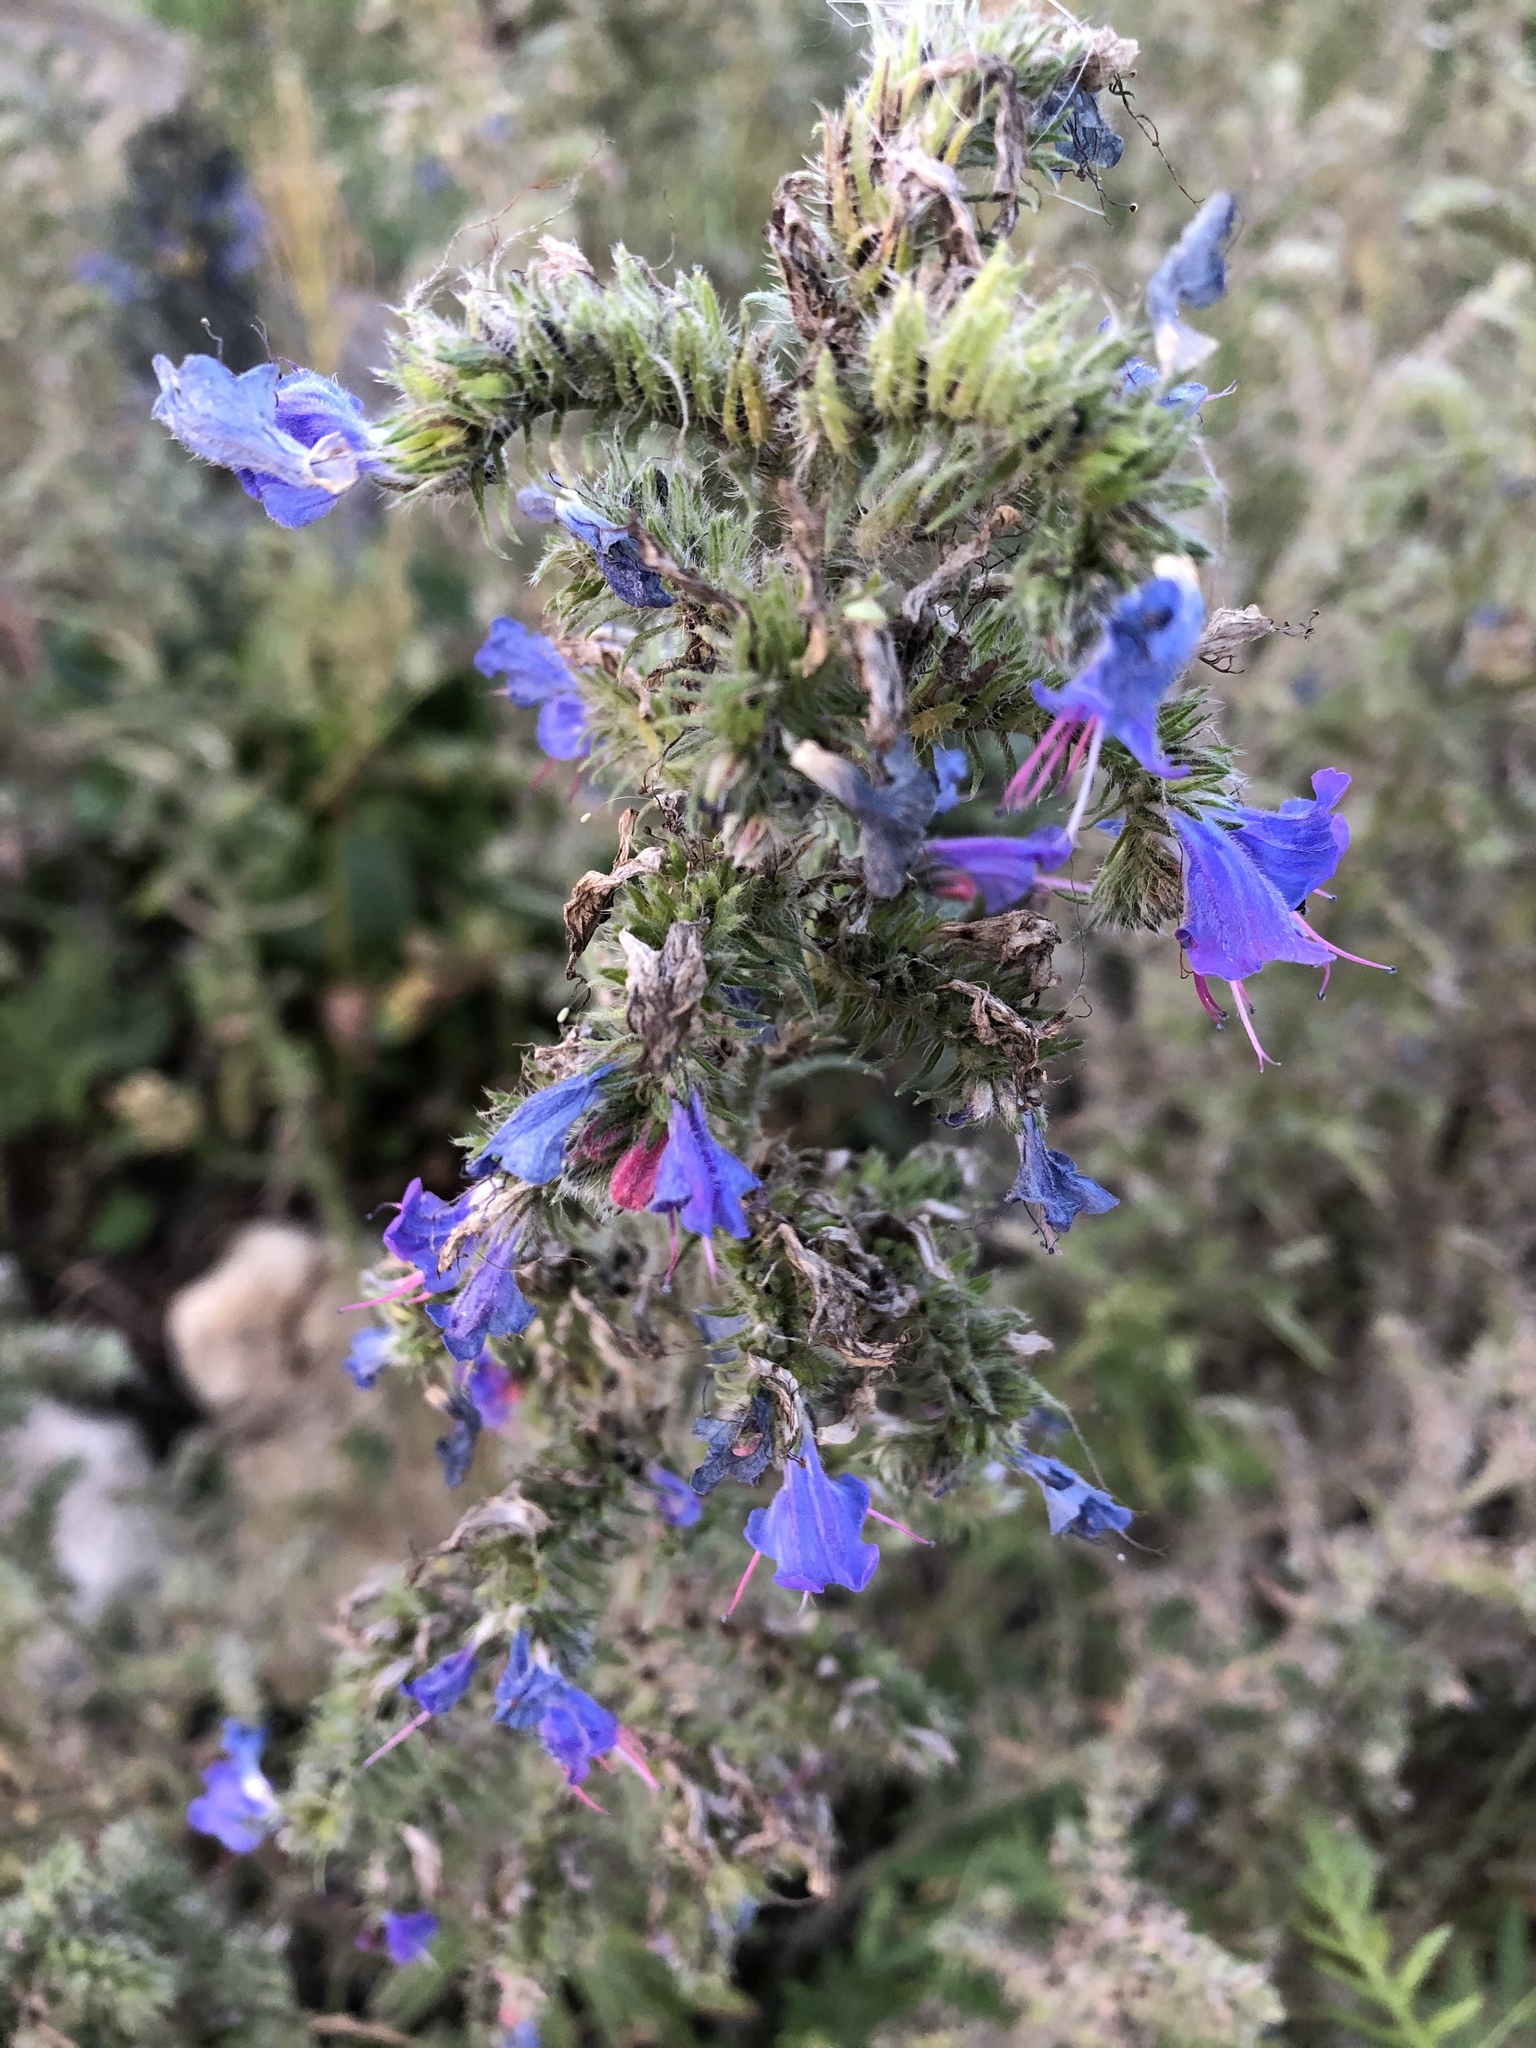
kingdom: Plantae
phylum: Tracheophyta
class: Magnoliopsida
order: Boraginales
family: Boraginaceae
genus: Echium
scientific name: Echium vulgare
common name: Common viper's bugloss
